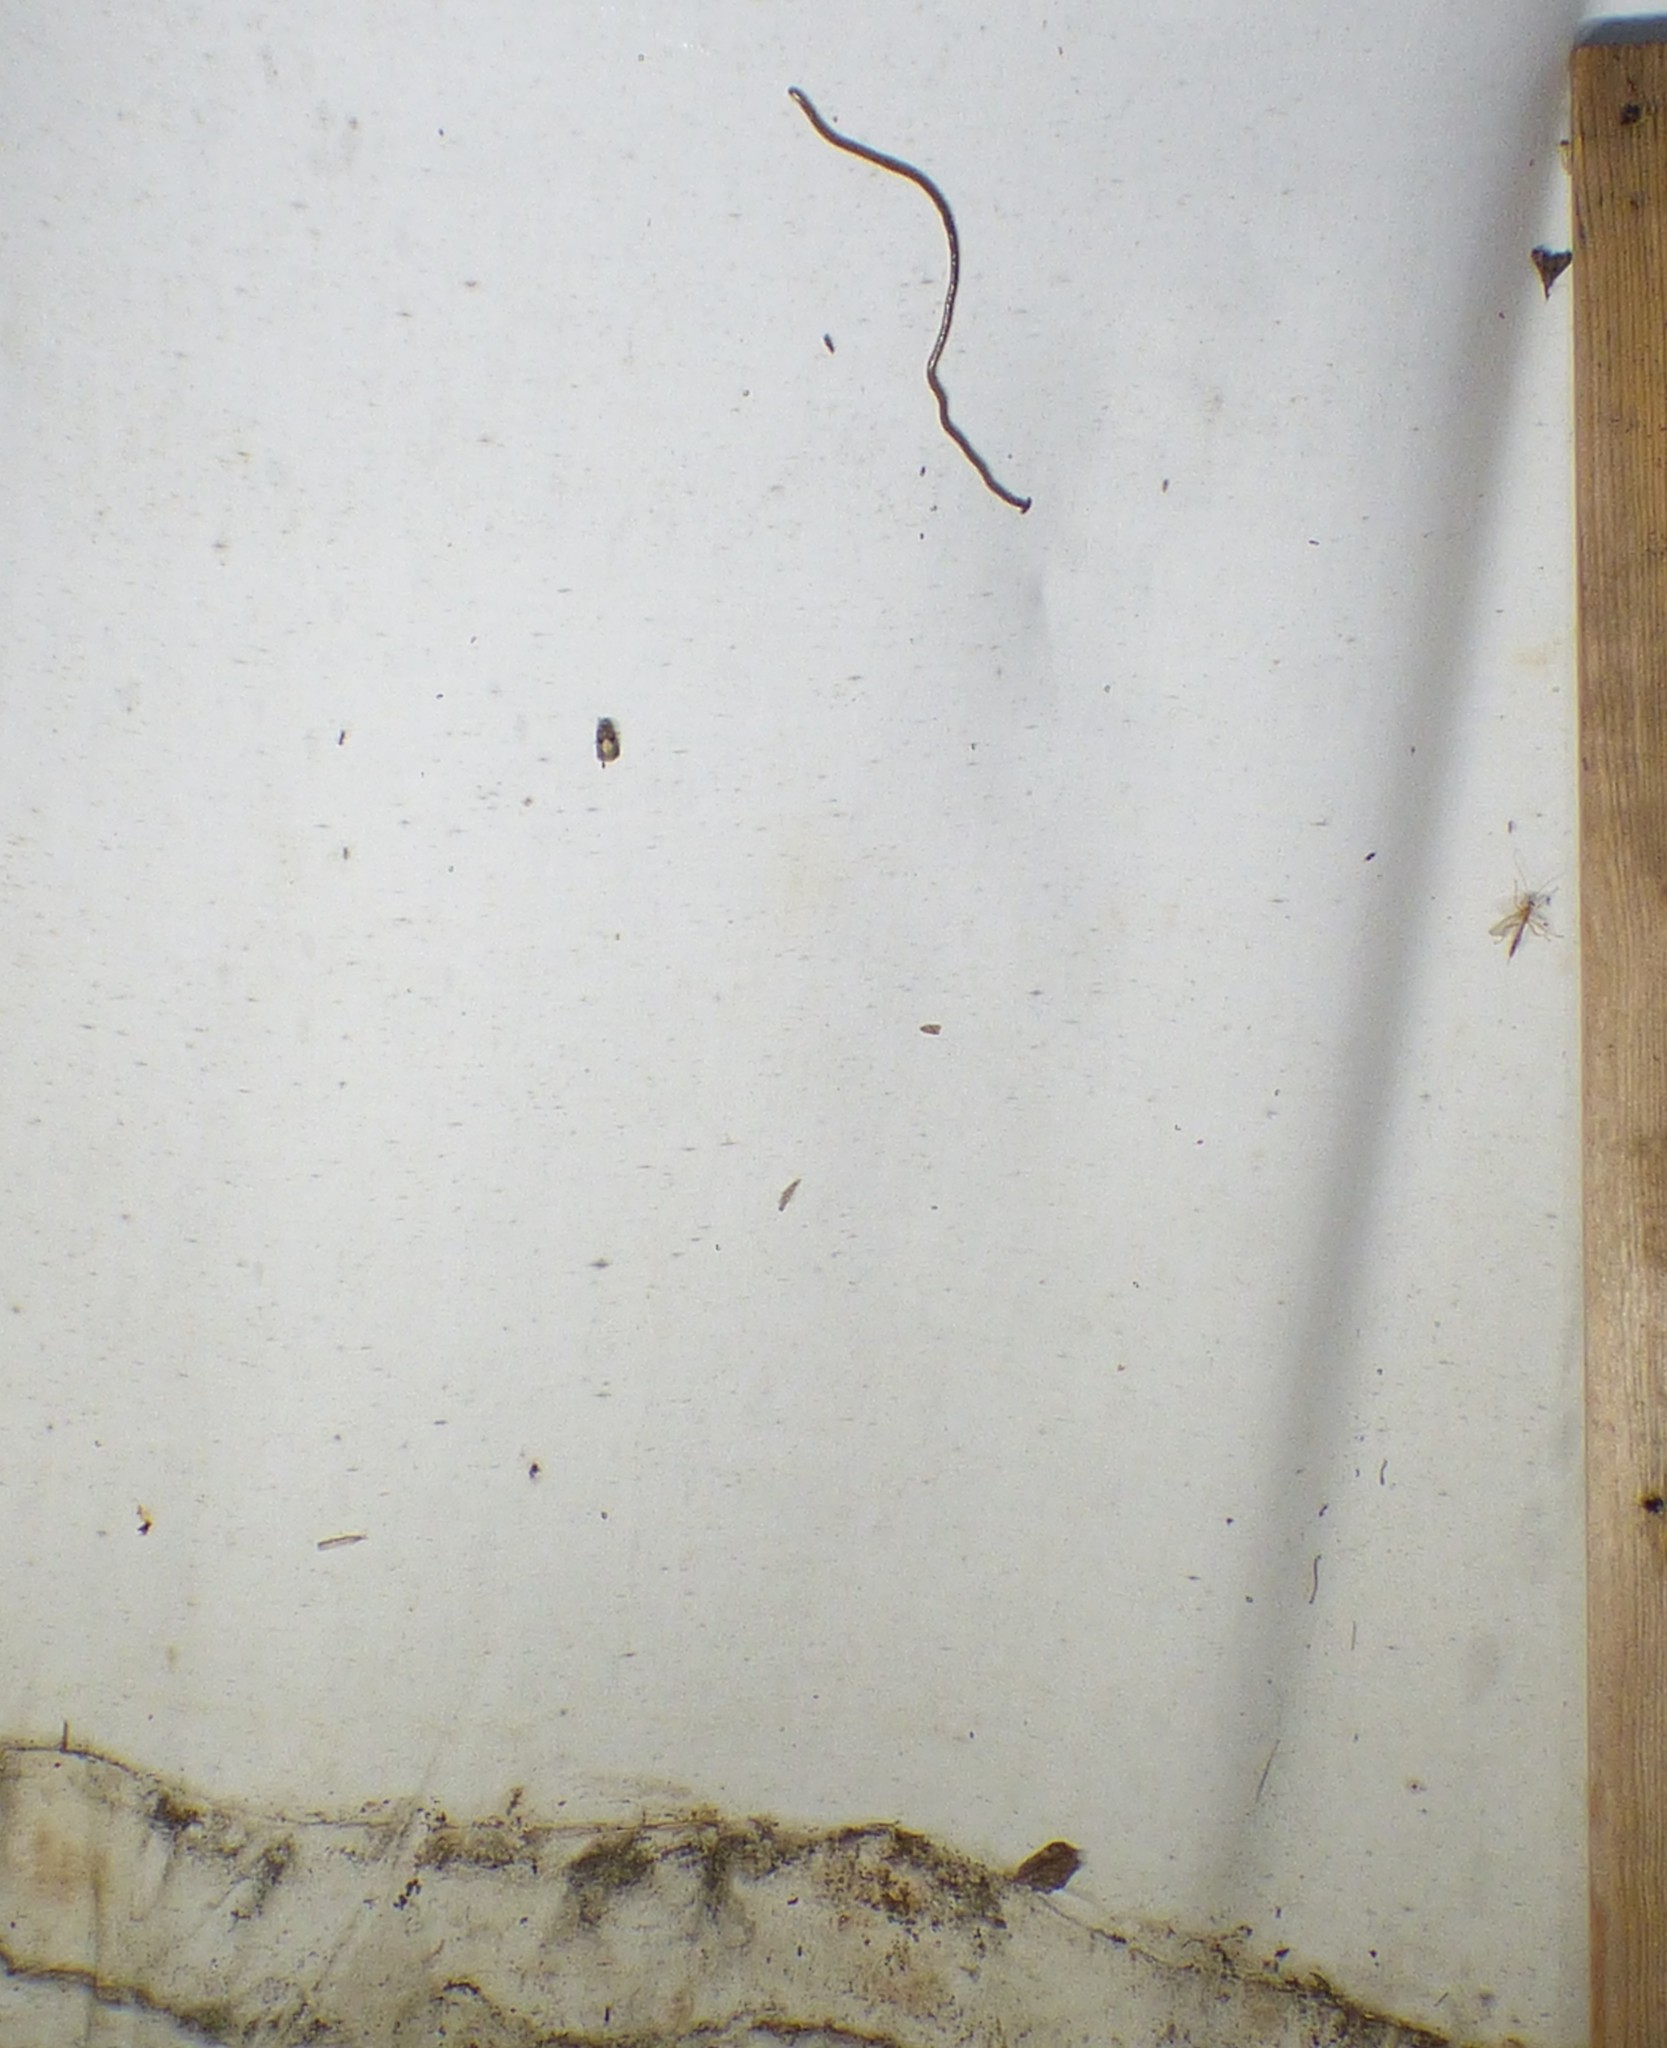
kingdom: Animalia
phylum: Platyhelminthes
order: Tricladida
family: Geoplanidae
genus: Bipalium
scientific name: Bipalium kewense
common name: Hammerhead flatworm
